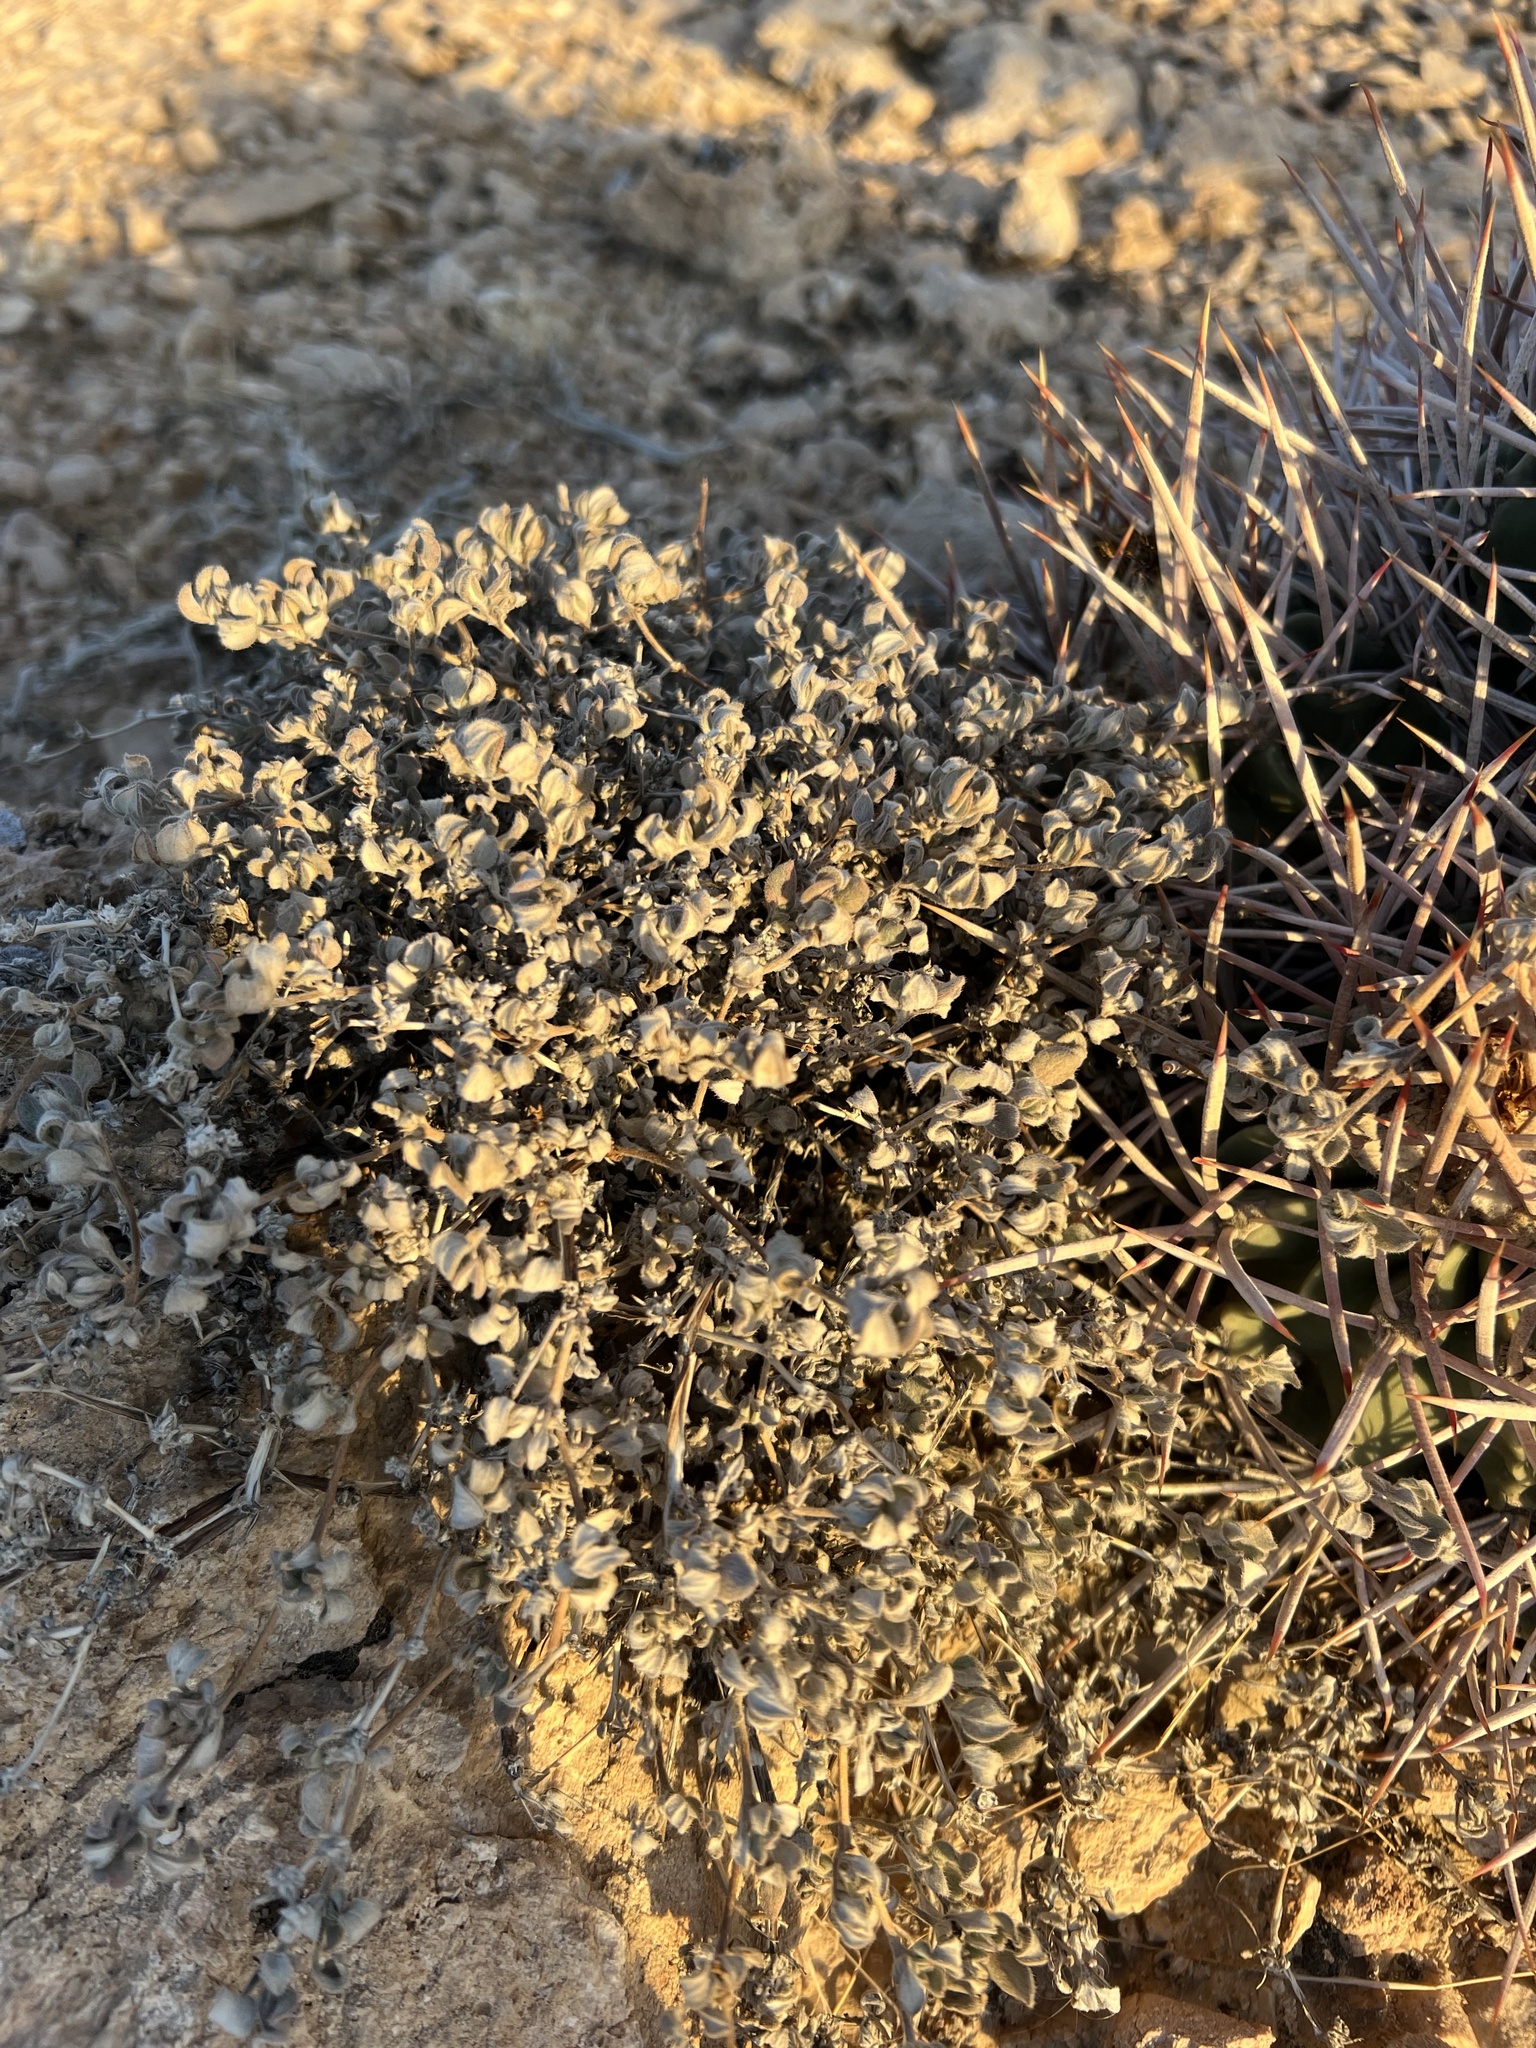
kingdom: Plantae
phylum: Tracheophyta
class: Magnoliopsida
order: Boraginales
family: Ehretiaceae
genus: Tiquilia
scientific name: Tiquilia canescens
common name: Hairy tiquilia
